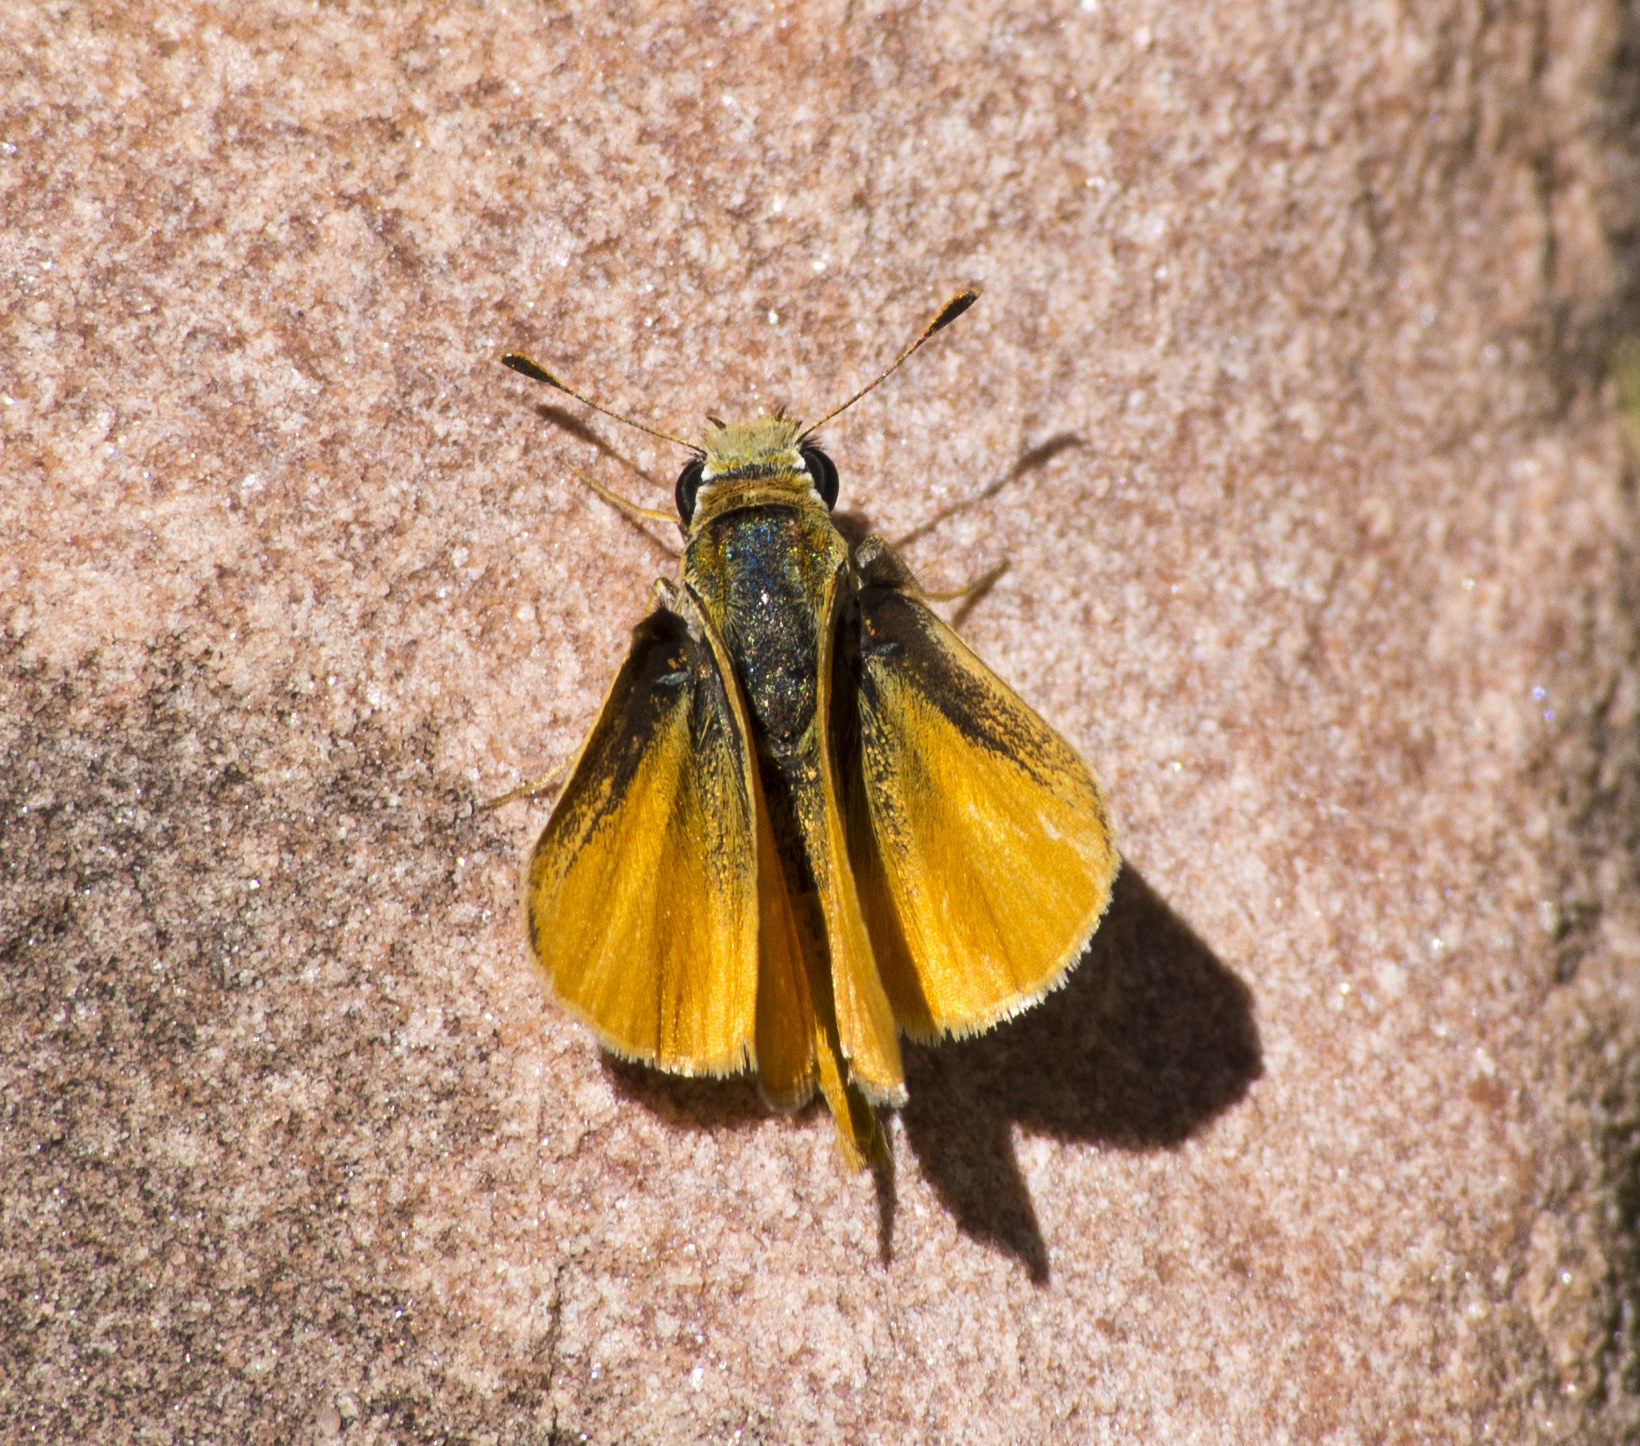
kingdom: Animalia
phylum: Arthropoda
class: Insecta
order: Lepidoptera
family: Hesperiidae
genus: Copaeodes
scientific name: Copaeodes aurantiaca
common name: Orange skipperling
